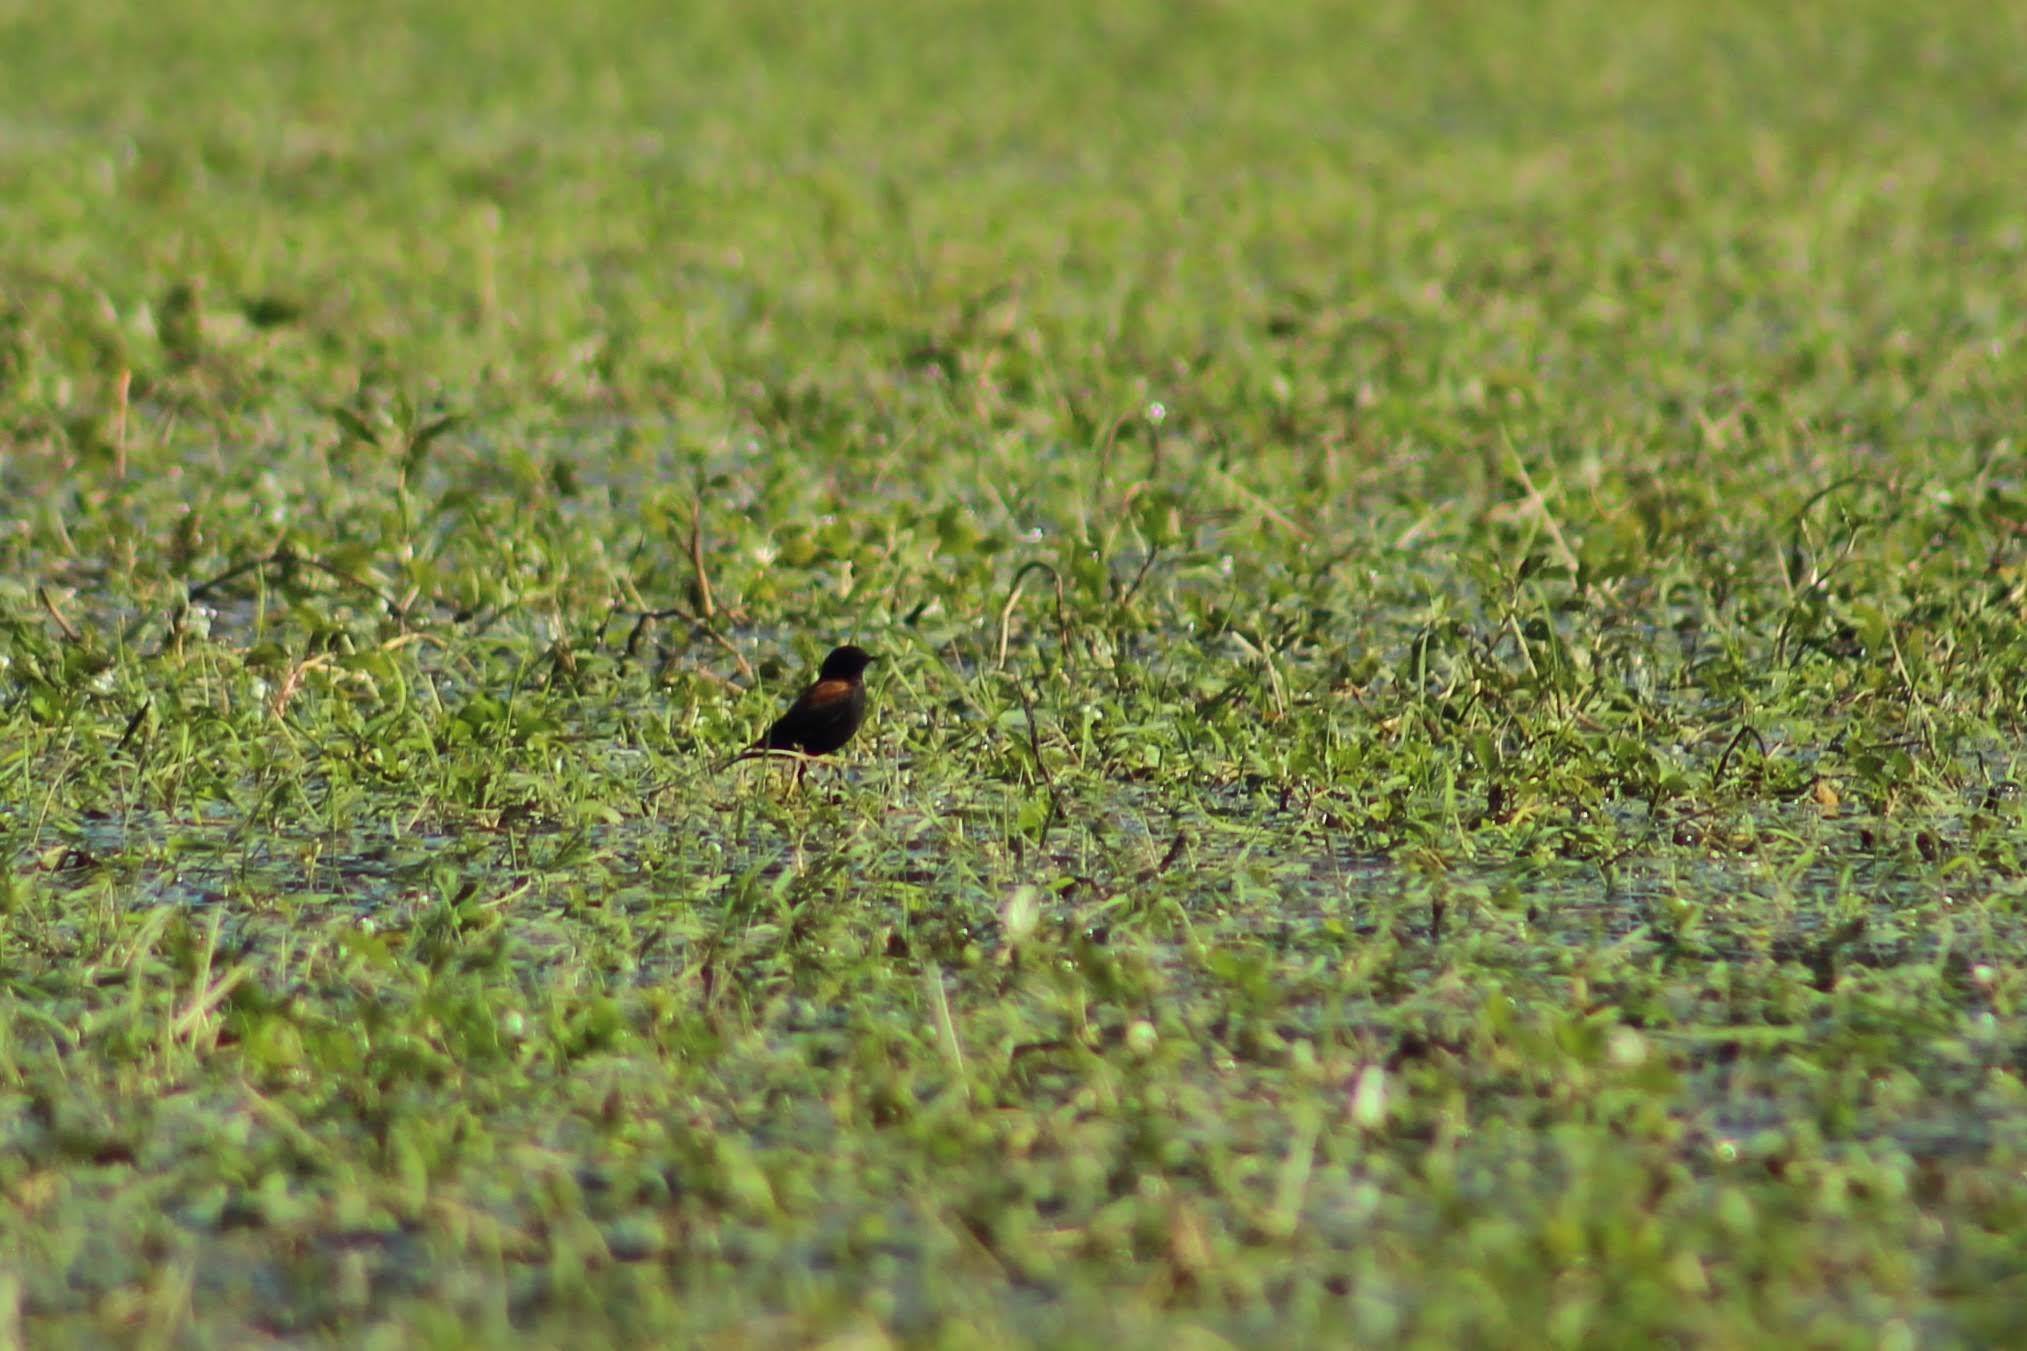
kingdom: Animalia
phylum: Chordata
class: Aves
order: Passeriformes
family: Tyrannidae
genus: Lessonia
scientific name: Lessonia rufa
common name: Austral negrito
